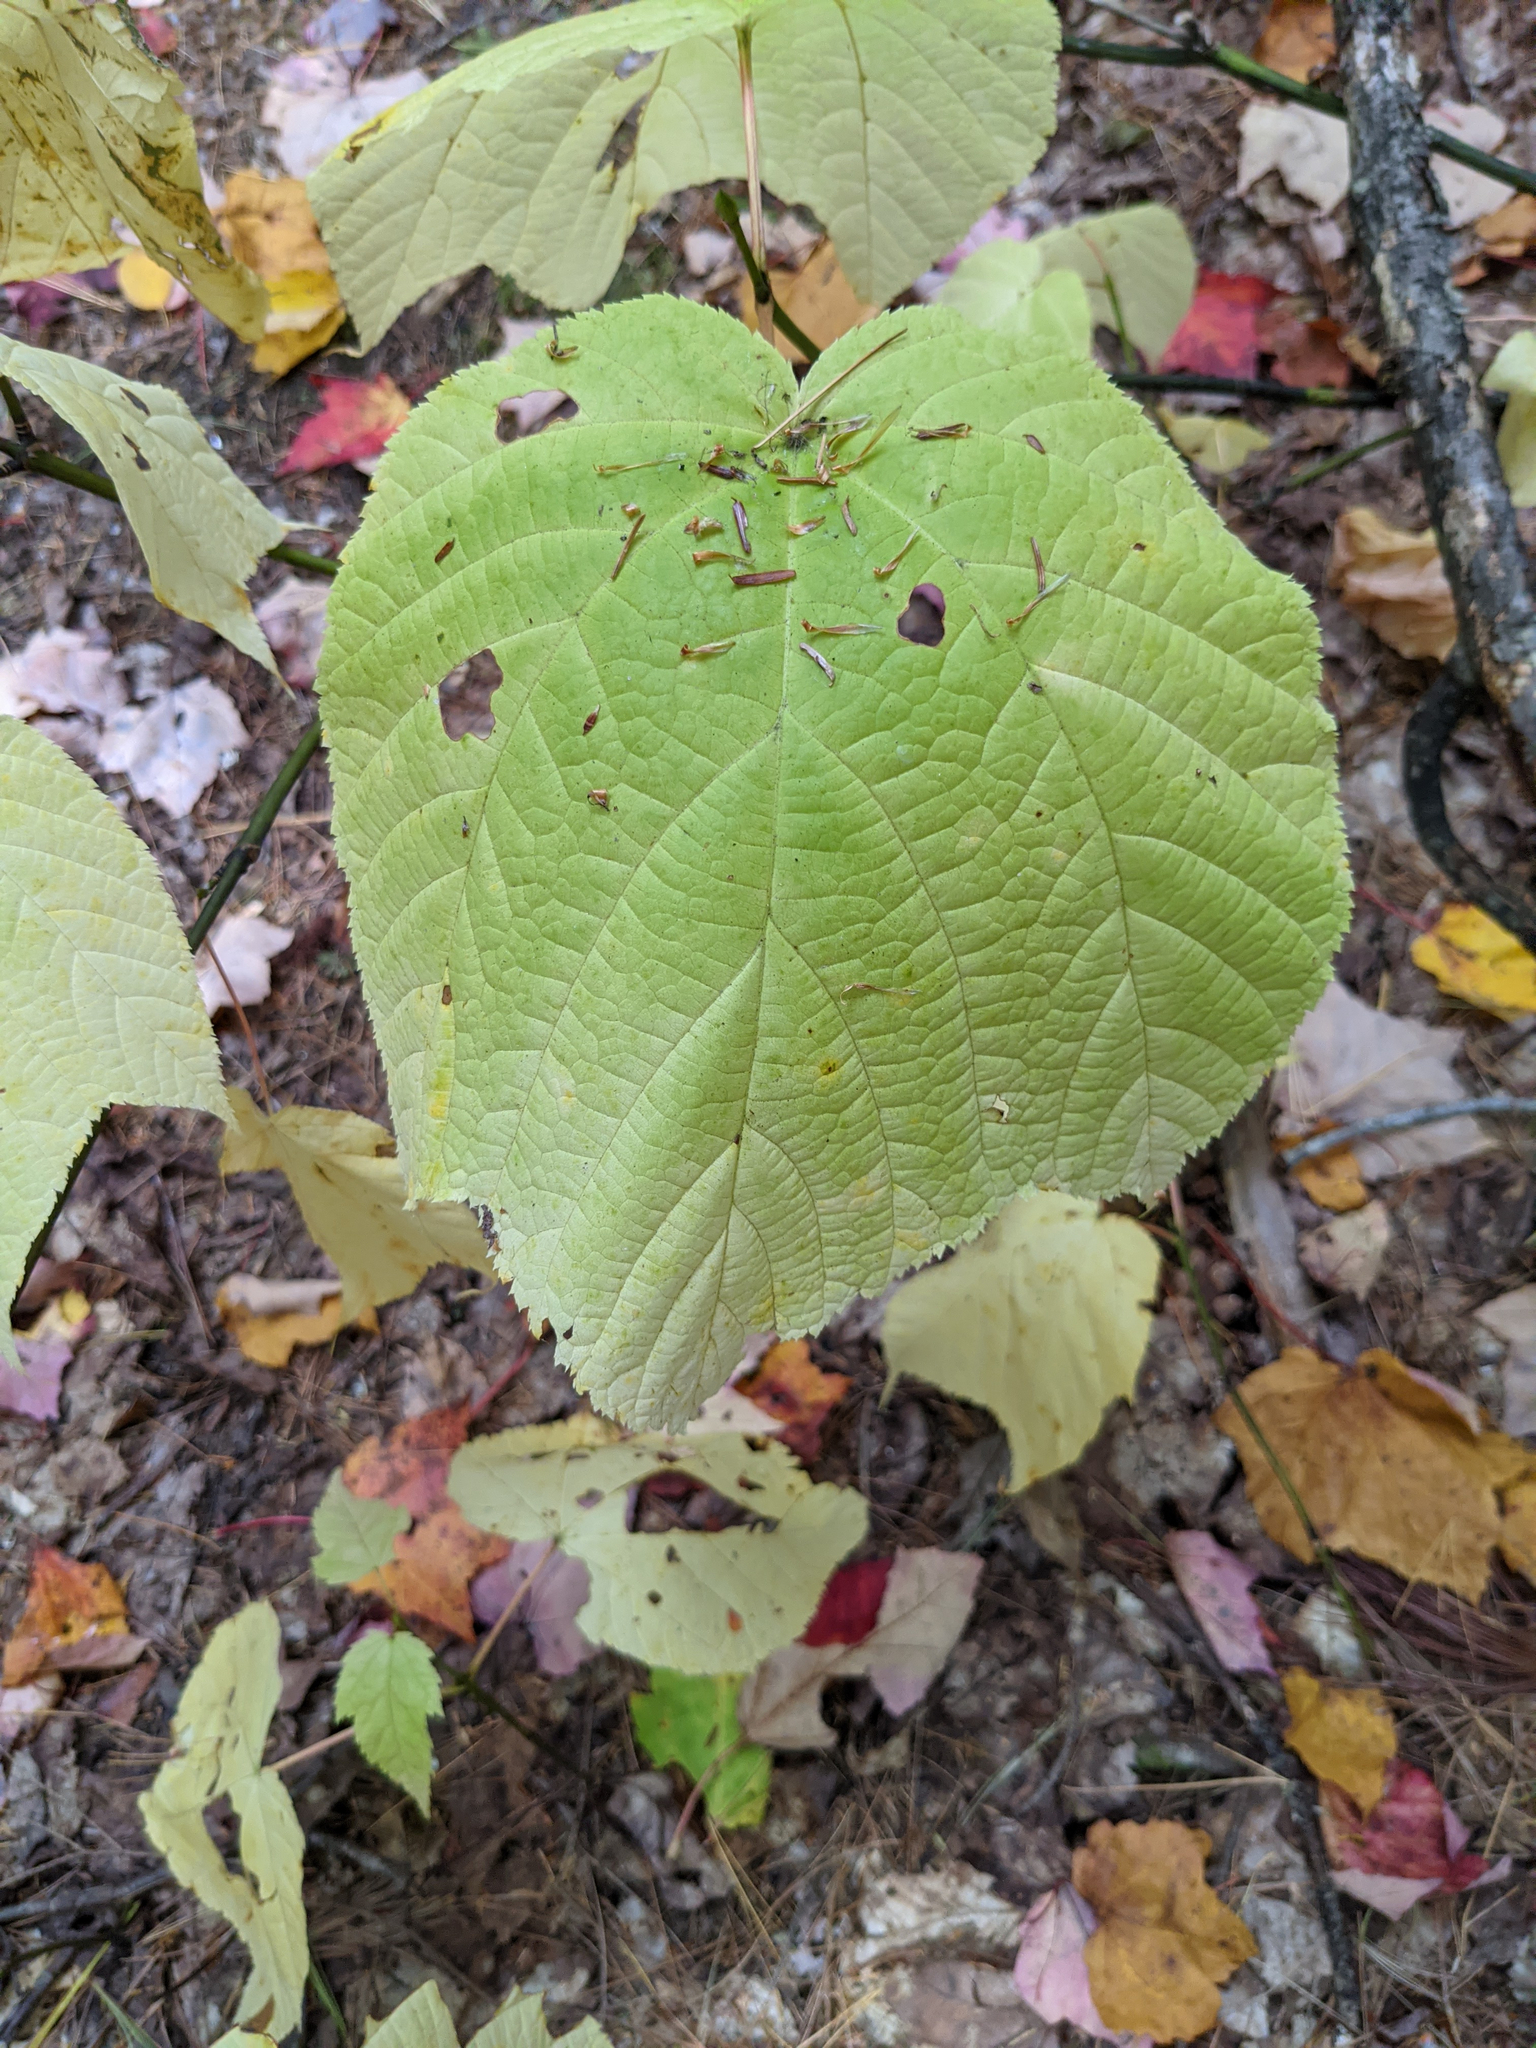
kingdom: Plantae
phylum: Tracheophyta
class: Magnoliopsida
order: Sapindales
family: Sapindaceae
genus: Acer
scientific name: Acer pensylvanicum
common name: Moosewood
